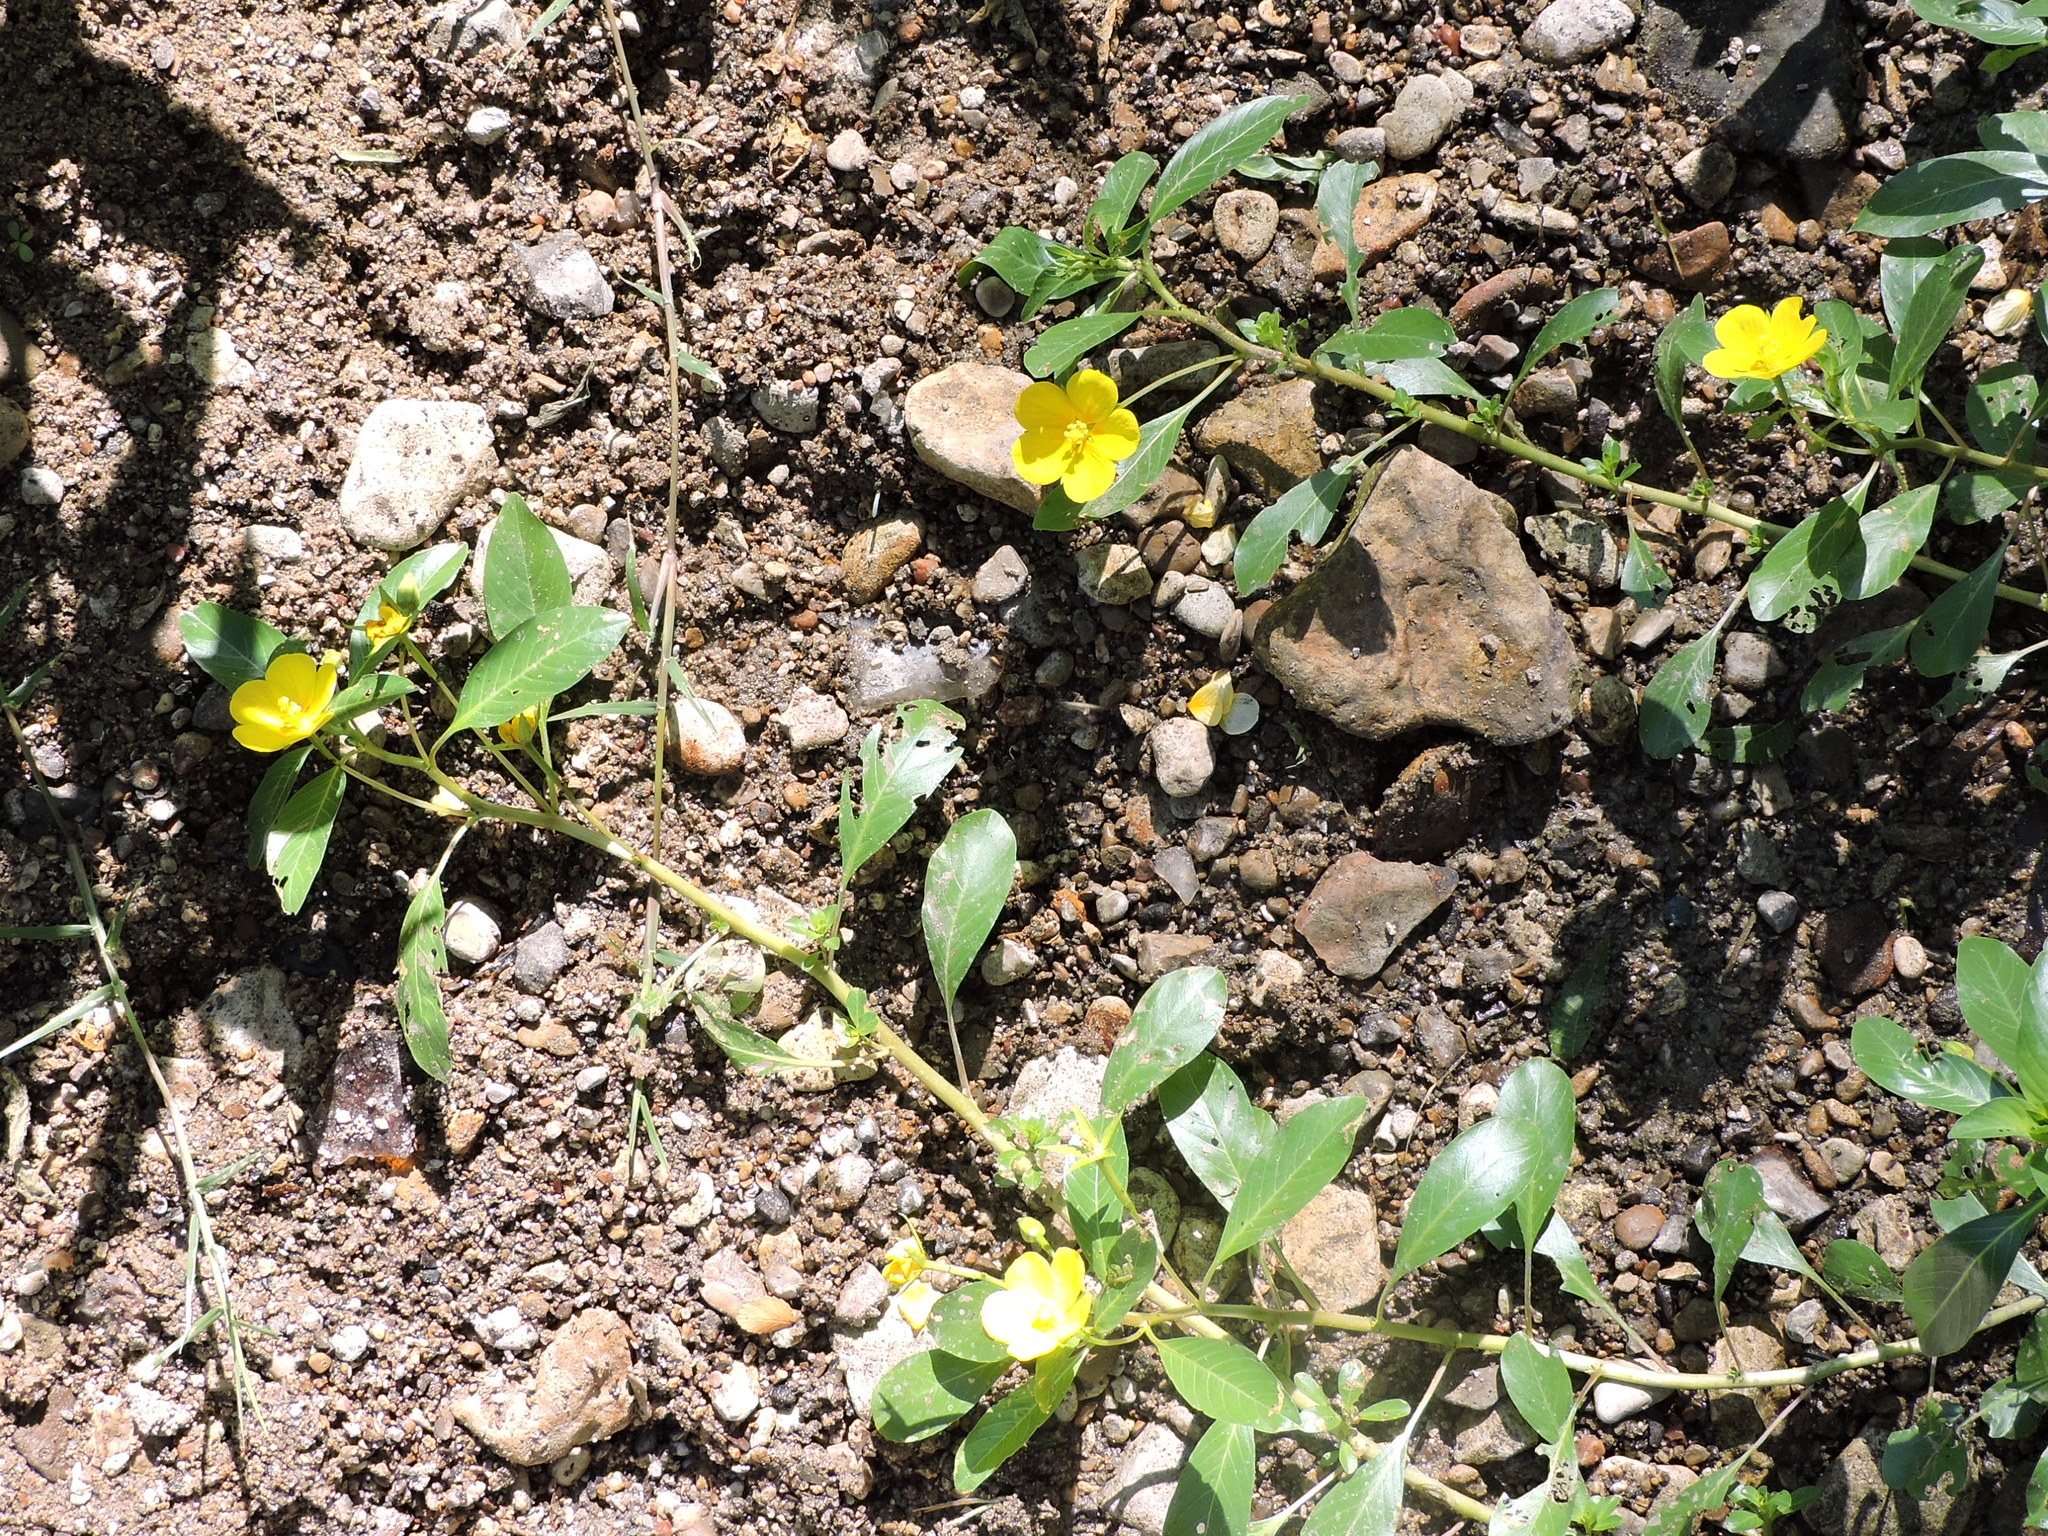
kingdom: Plantae
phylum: Tracheophyta
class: Magnoliopsida
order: Myrtales
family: Onagraceae
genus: Ludwigia
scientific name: Ludwigia peploides
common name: Floating primrose-willow
